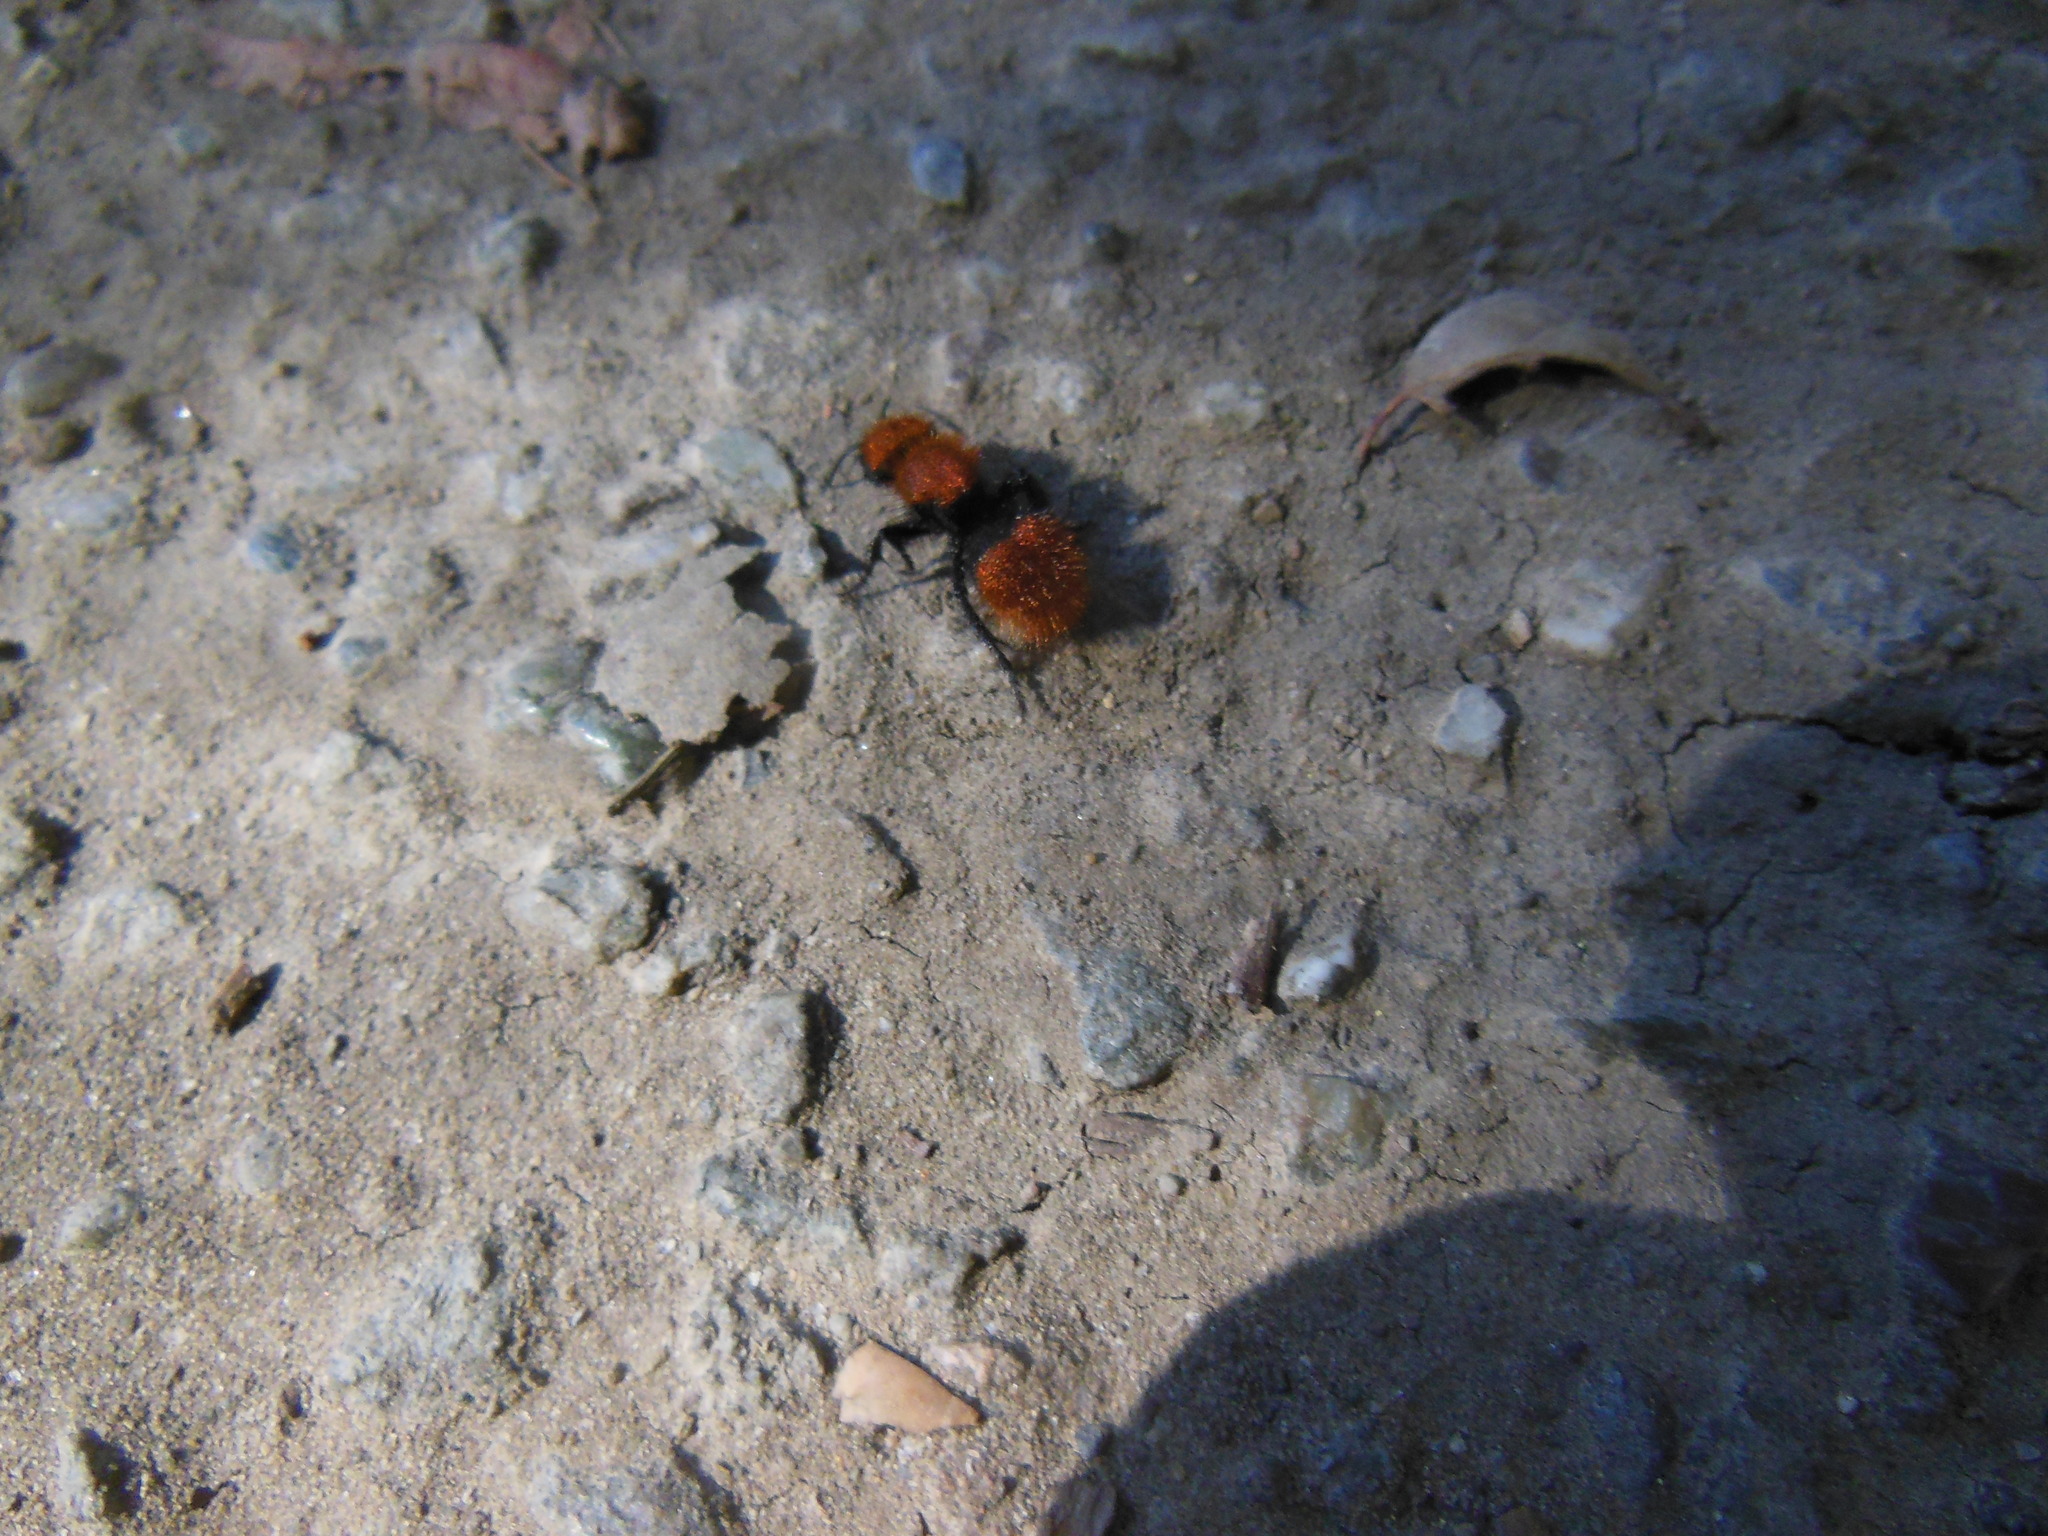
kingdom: Animalia
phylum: Arthropoda
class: Insecta
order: Hymenoptera
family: Mutillidae
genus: Dasymutilla
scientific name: Dasymutilla
